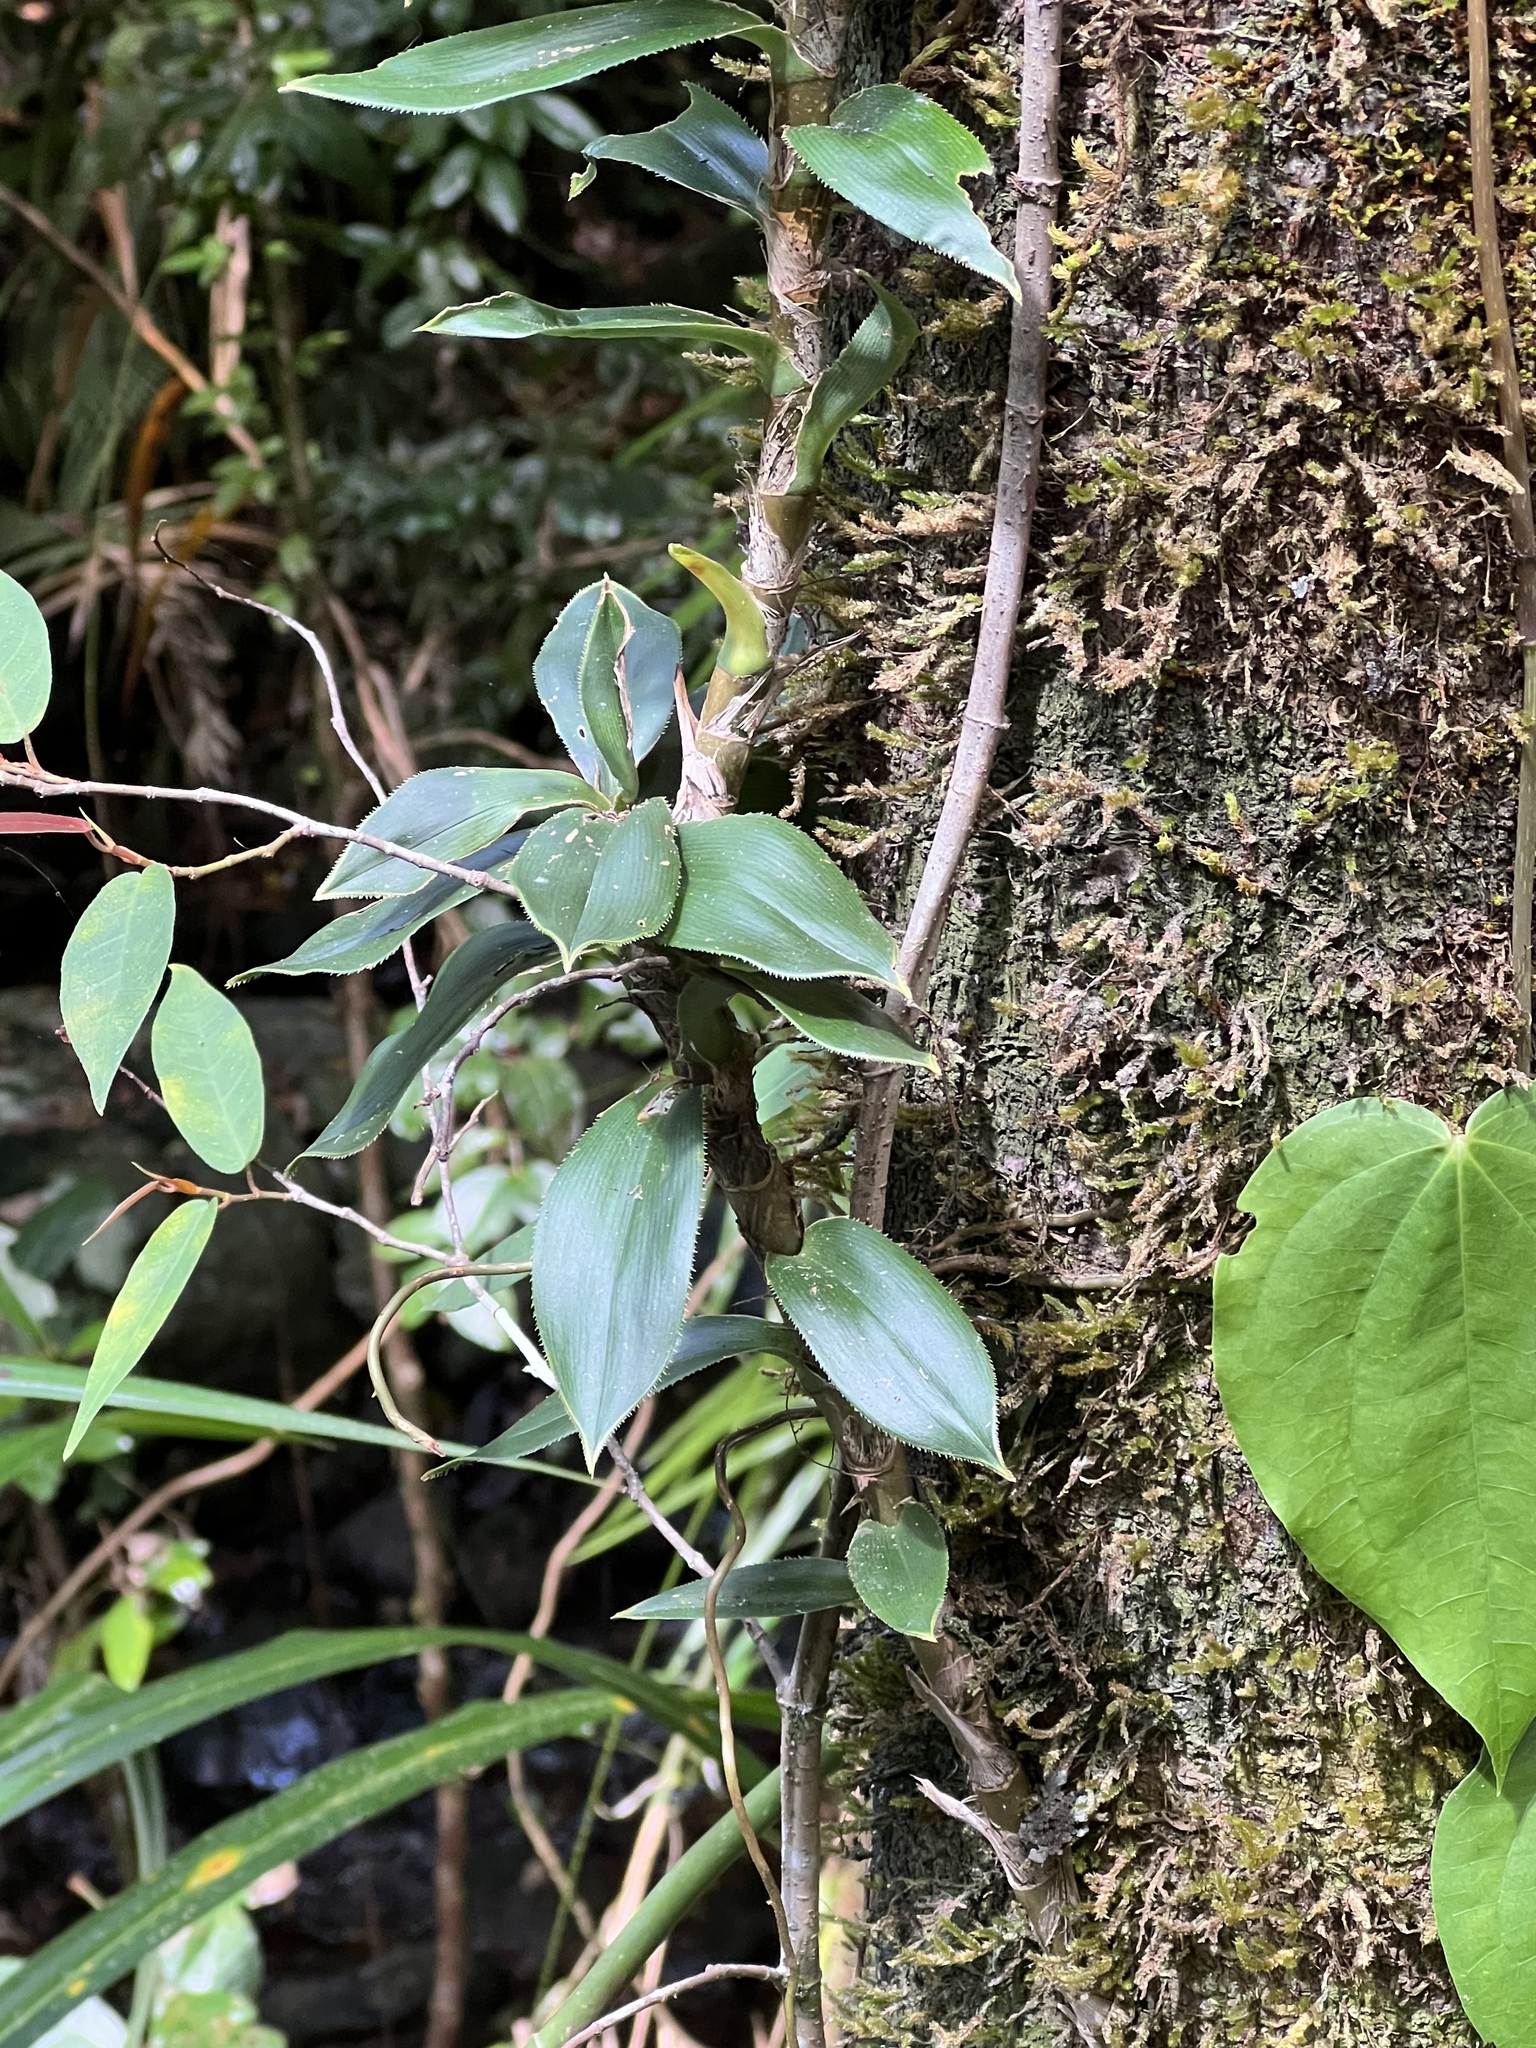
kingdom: Plantae
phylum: Tracheophyta
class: Liliopsida
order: Pandanales
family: Pandanaceae
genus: Freycinetia
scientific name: Freycinetia scandens
